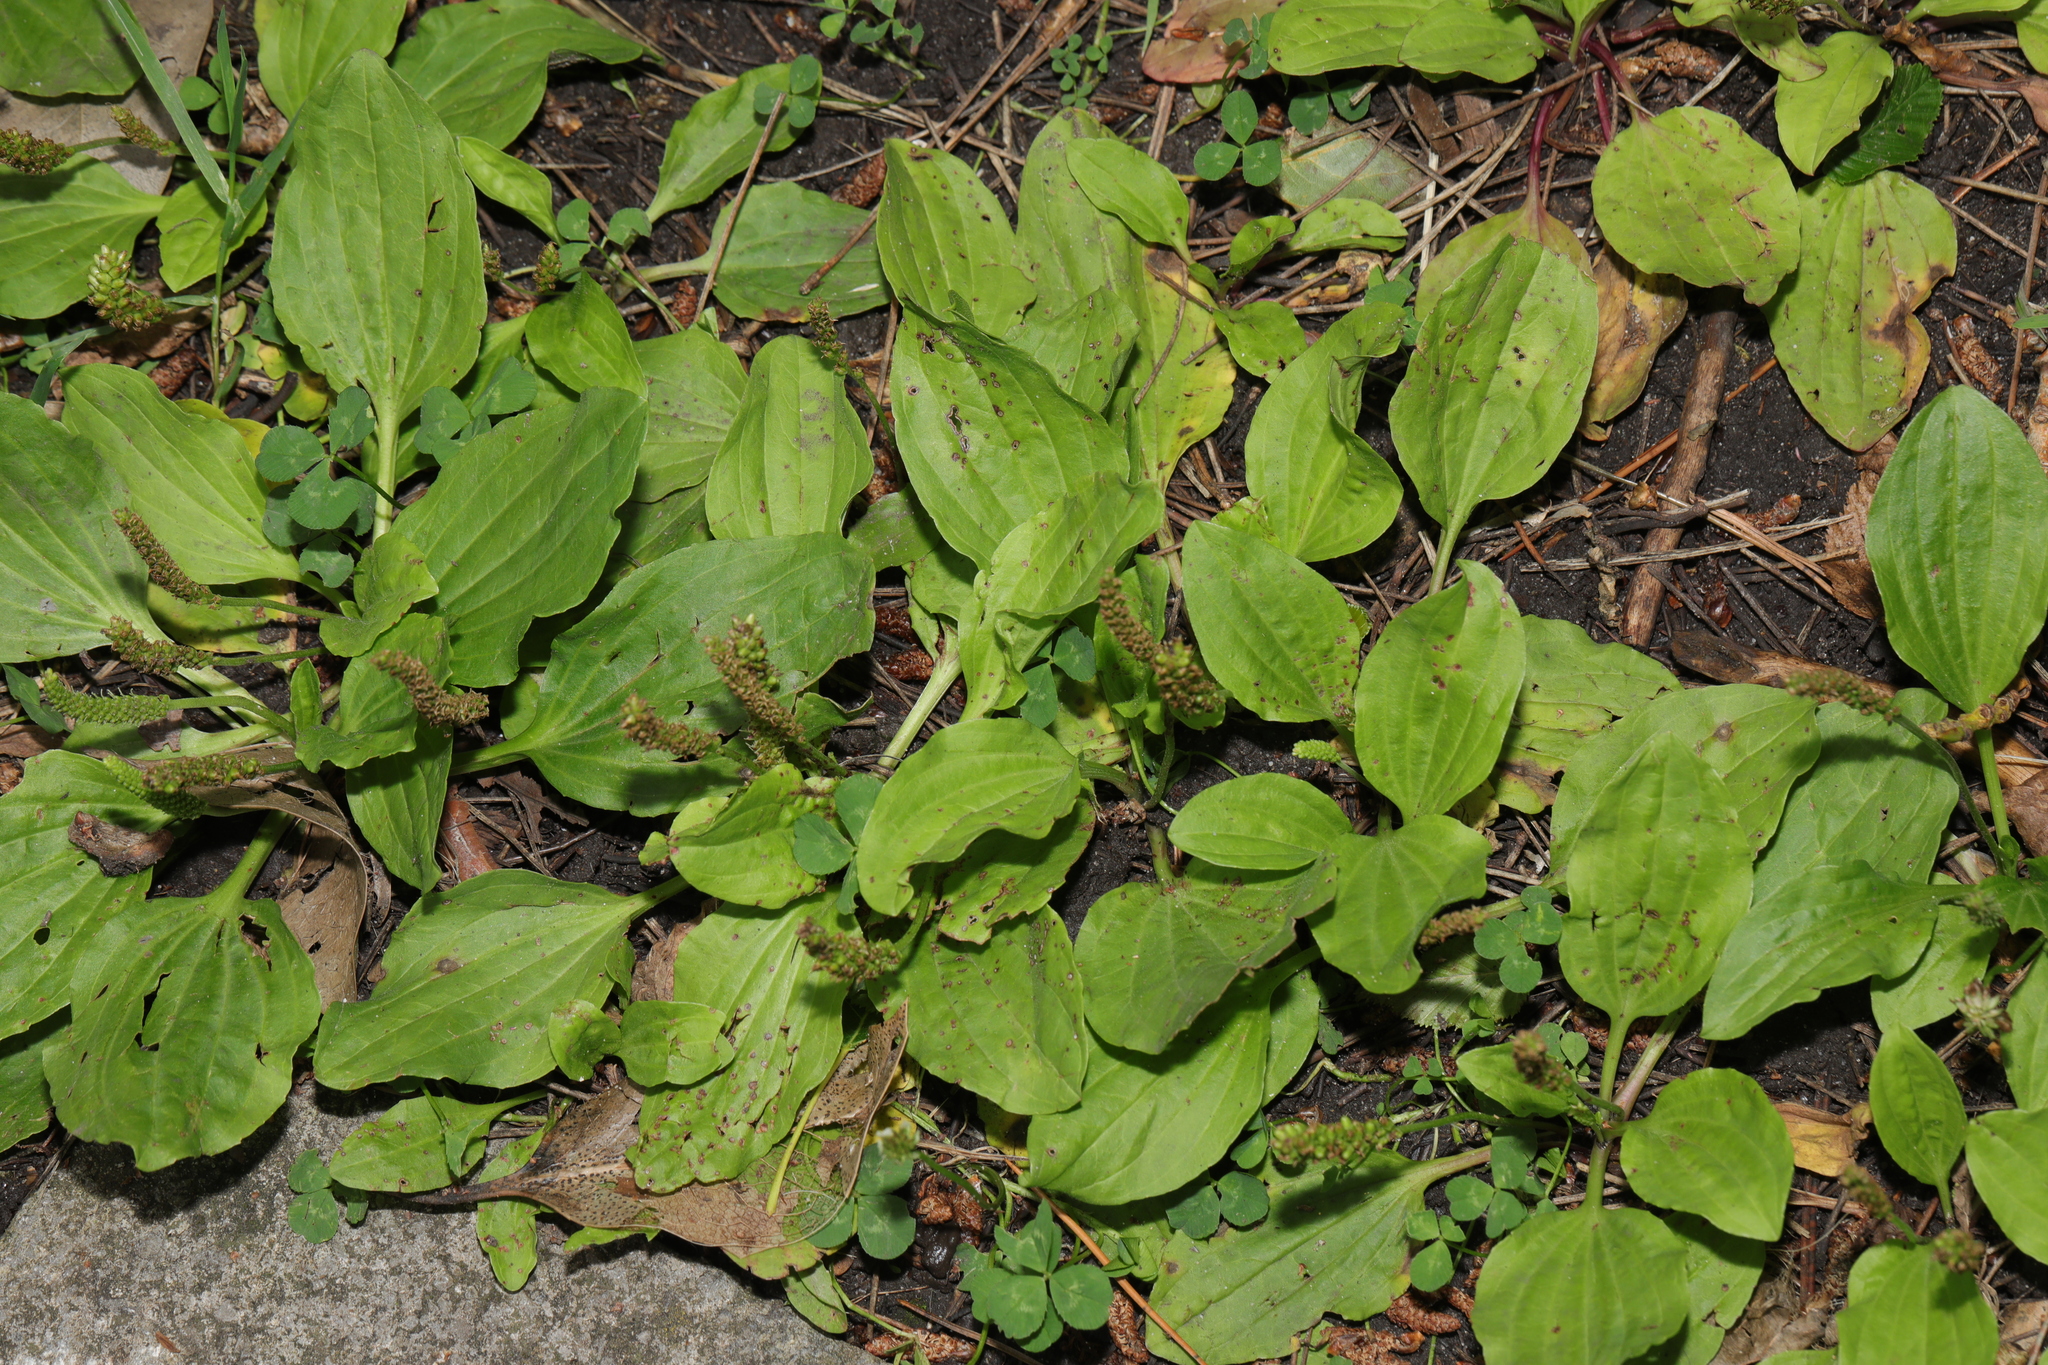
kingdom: Plantae
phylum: Tracheophyta
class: Magnoliopsida
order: Lamiales
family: Plantaginaceae
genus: Plantago
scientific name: Plantago major
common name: Common plantain
